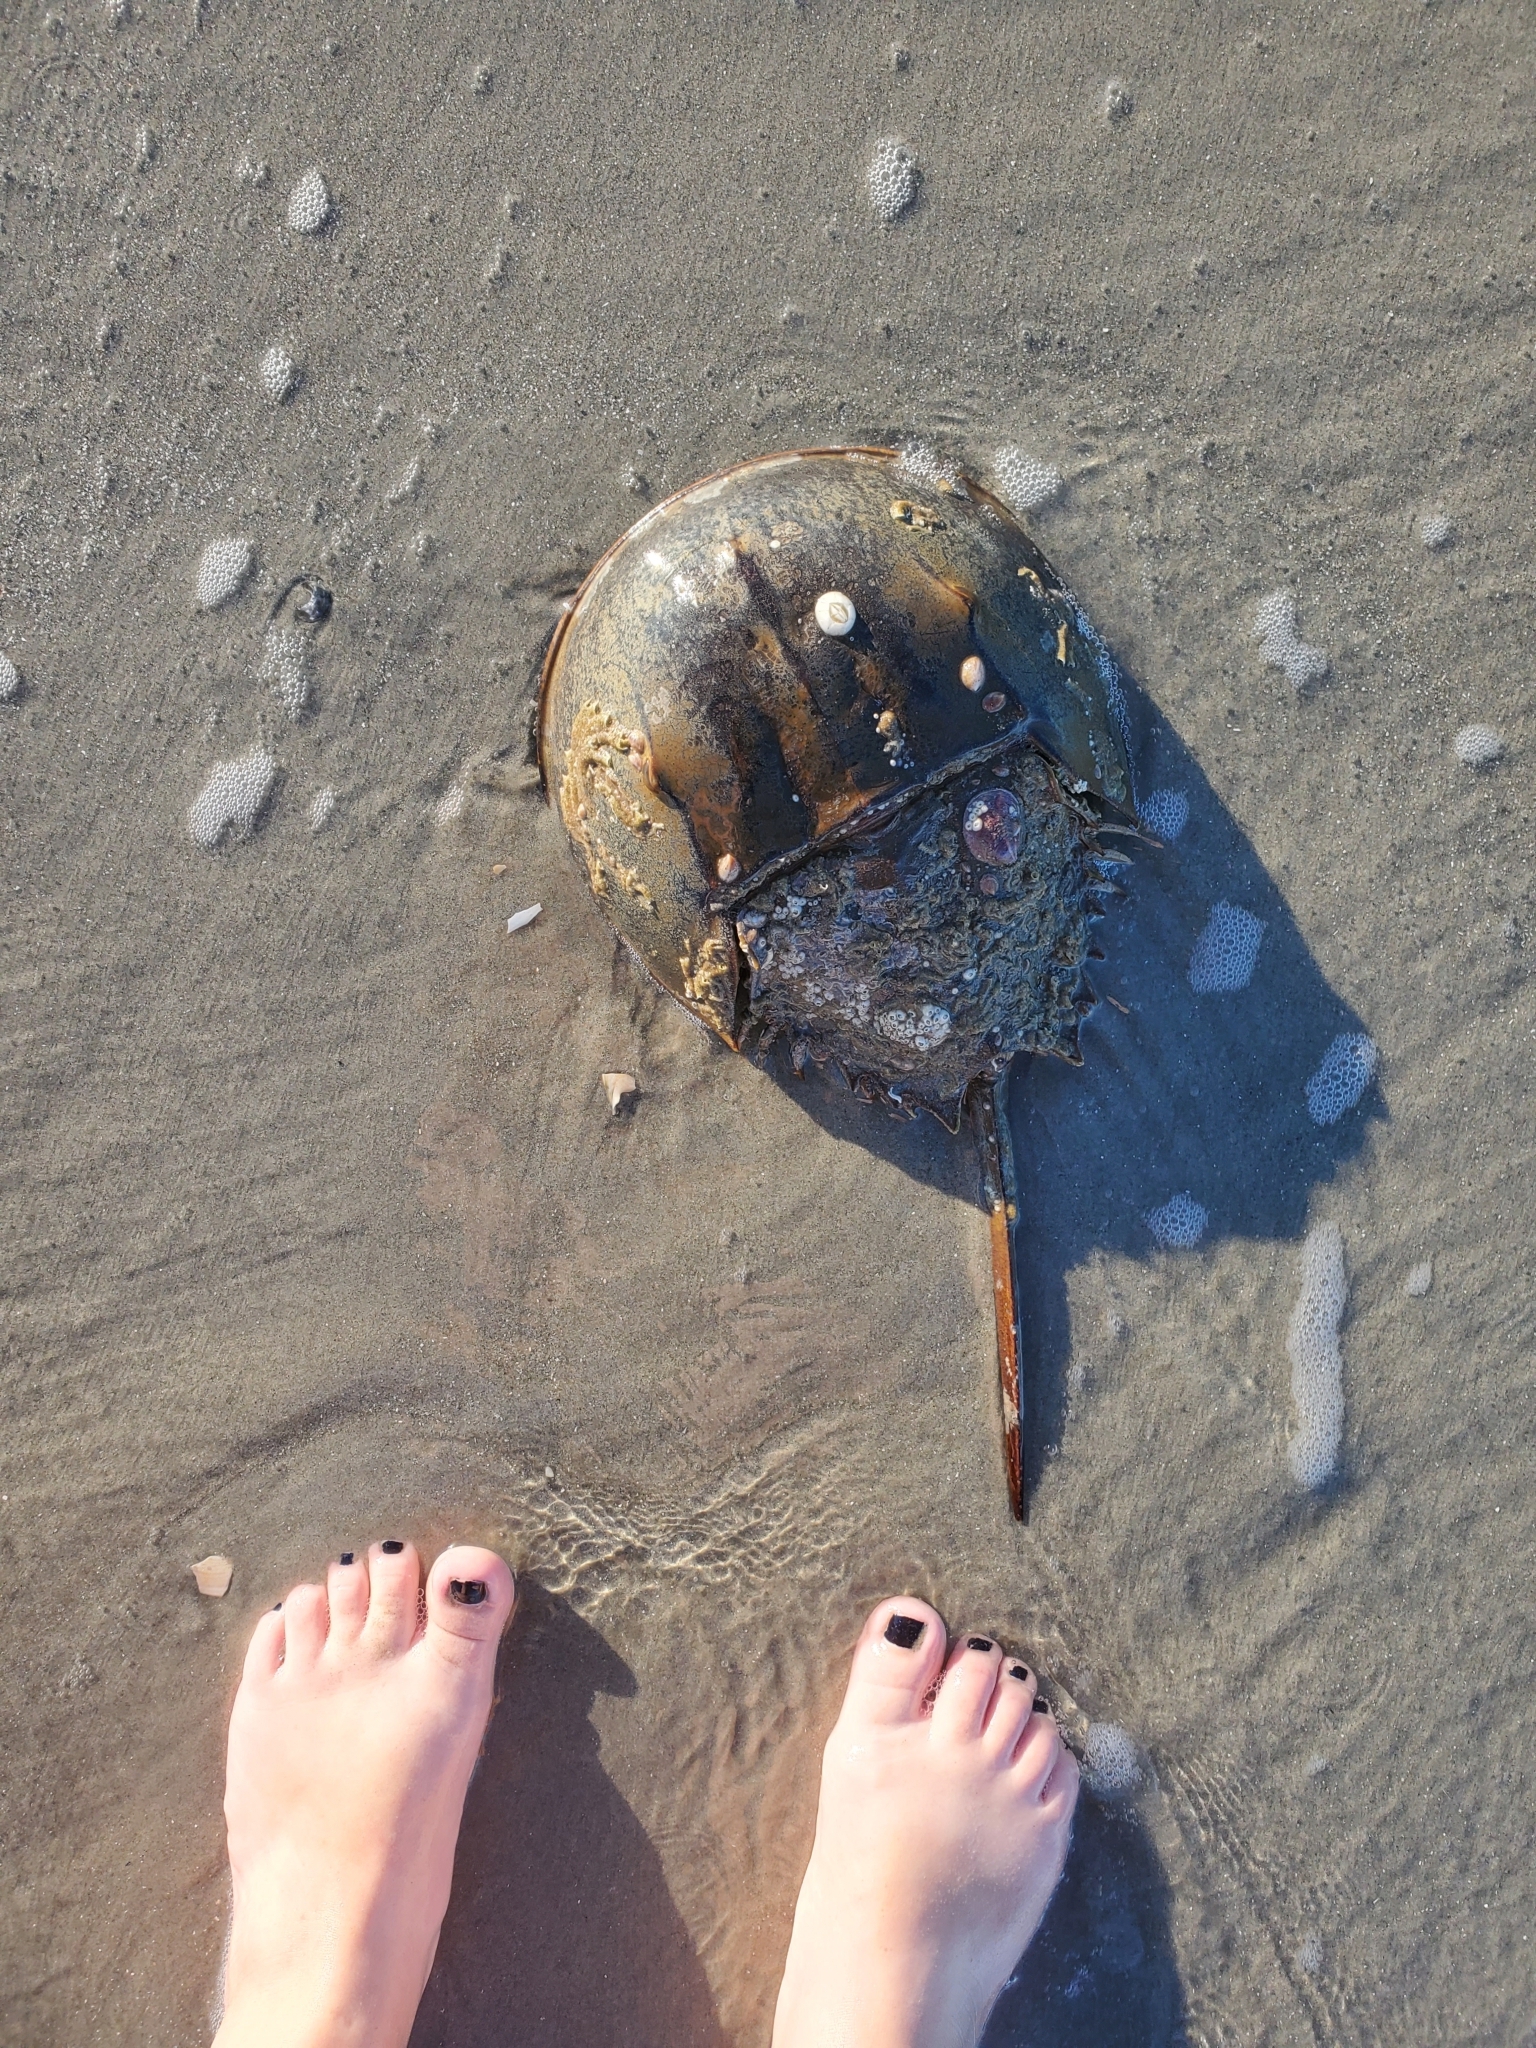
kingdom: Animalia
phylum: Arthropoda
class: Merostomata
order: Xiphosurida
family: Limulidae
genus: Limulus
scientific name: Limulus polyphemus
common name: Horseshoe crab
